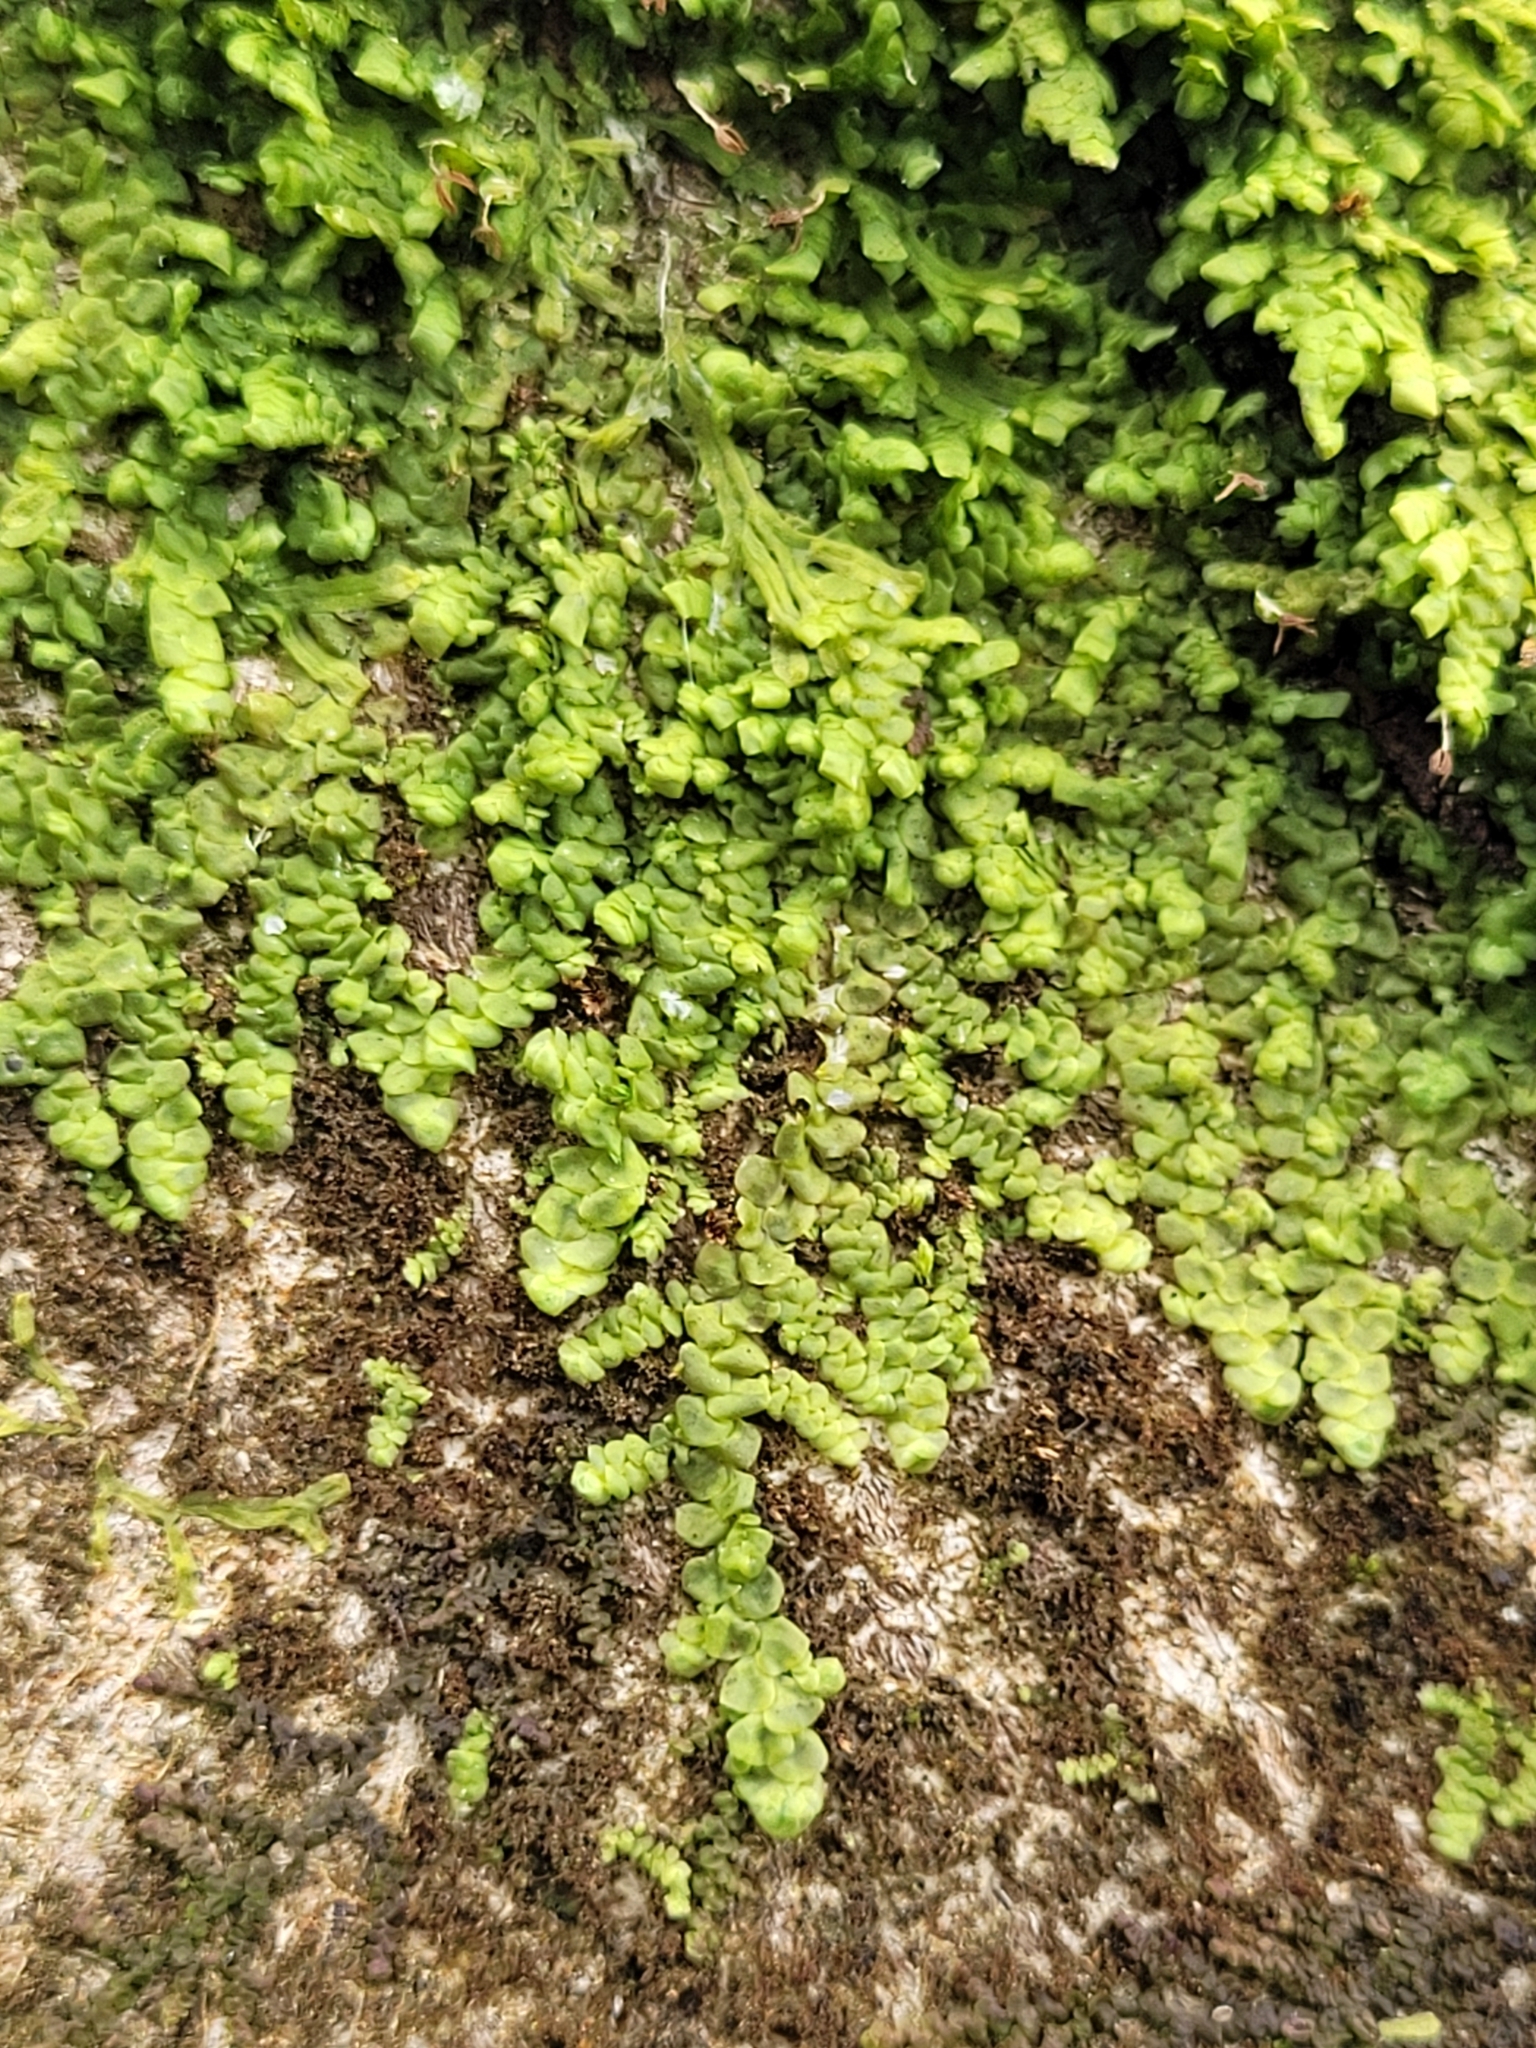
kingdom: Plantae
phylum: Marchantiophyta
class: Jungermanniopsida
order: Porellales
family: Radulaceae
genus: Radula
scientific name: Radula complanata
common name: Flat-leaved scalewort
